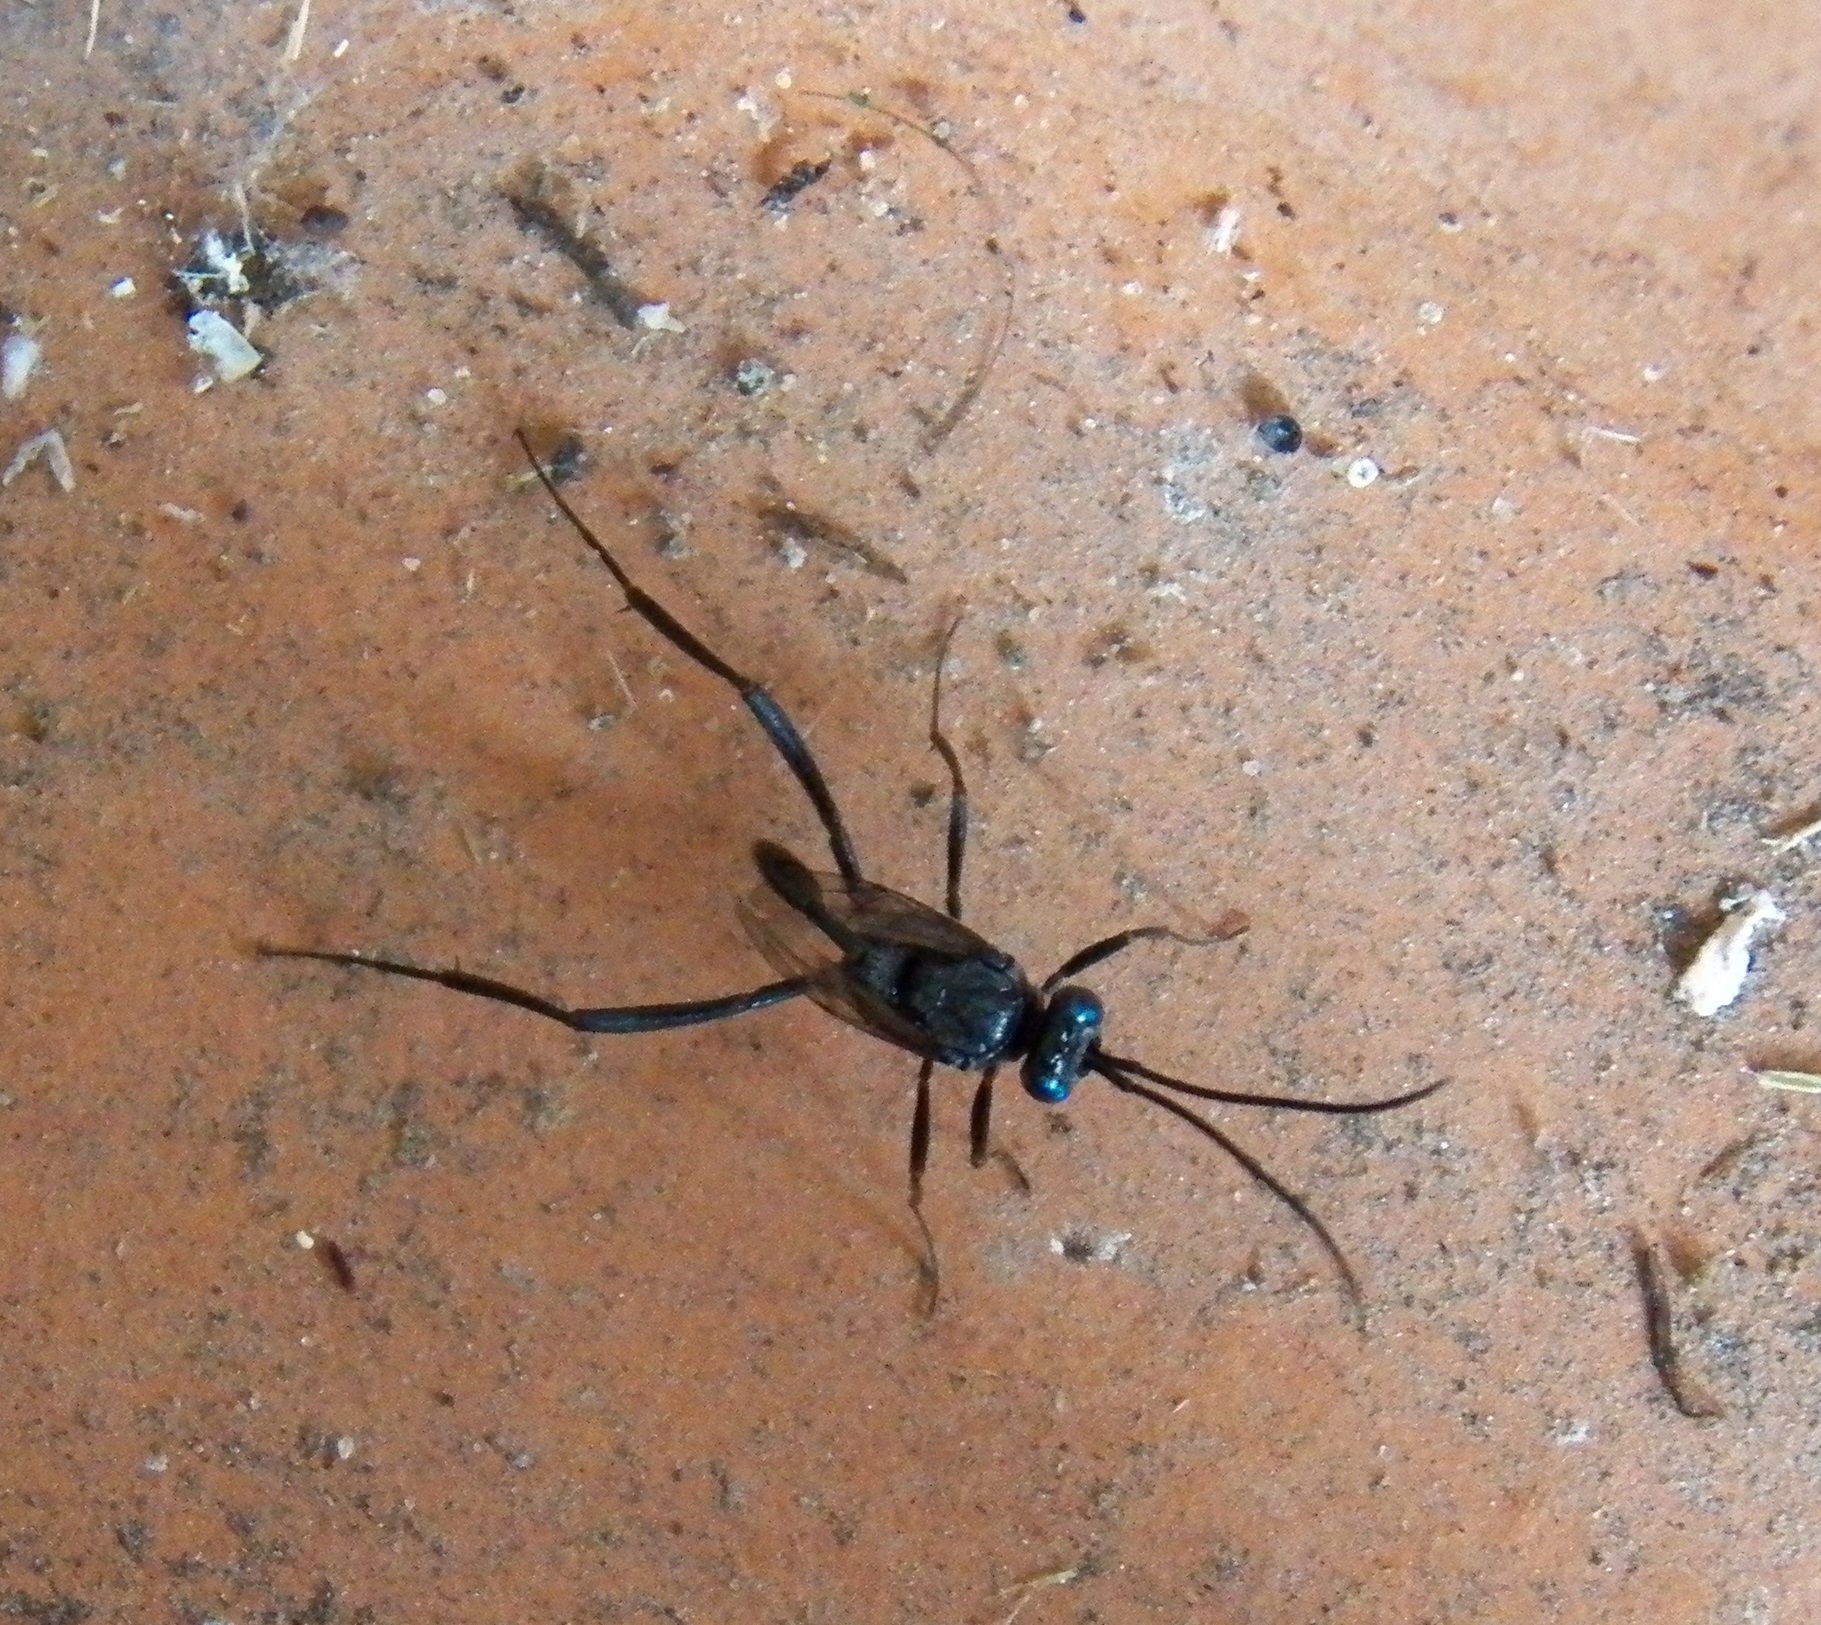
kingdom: Animalia
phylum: Arthropoda
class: Insecta
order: Hymenoptera
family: Evaniidae
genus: Evania
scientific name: Evania appendigaster
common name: Ensign wasp
